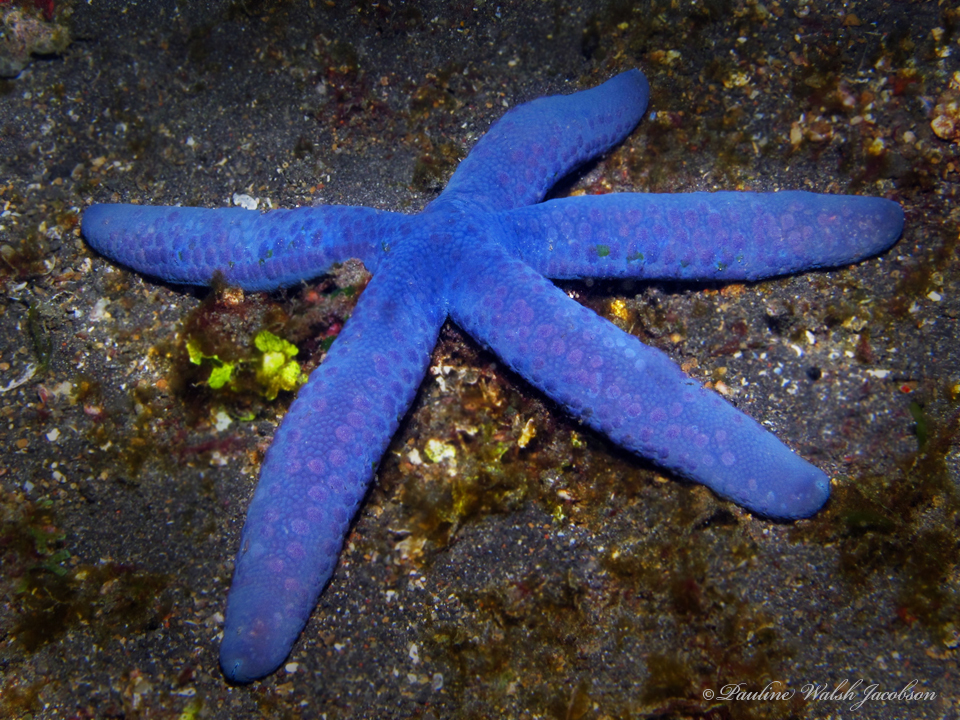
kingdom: Animalia
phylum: Echinodermata
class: Asteroidea
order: Valvatida
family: Ophidiasteridae
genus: Linckia
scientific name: Linckia laevigata
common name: Azure sea star
